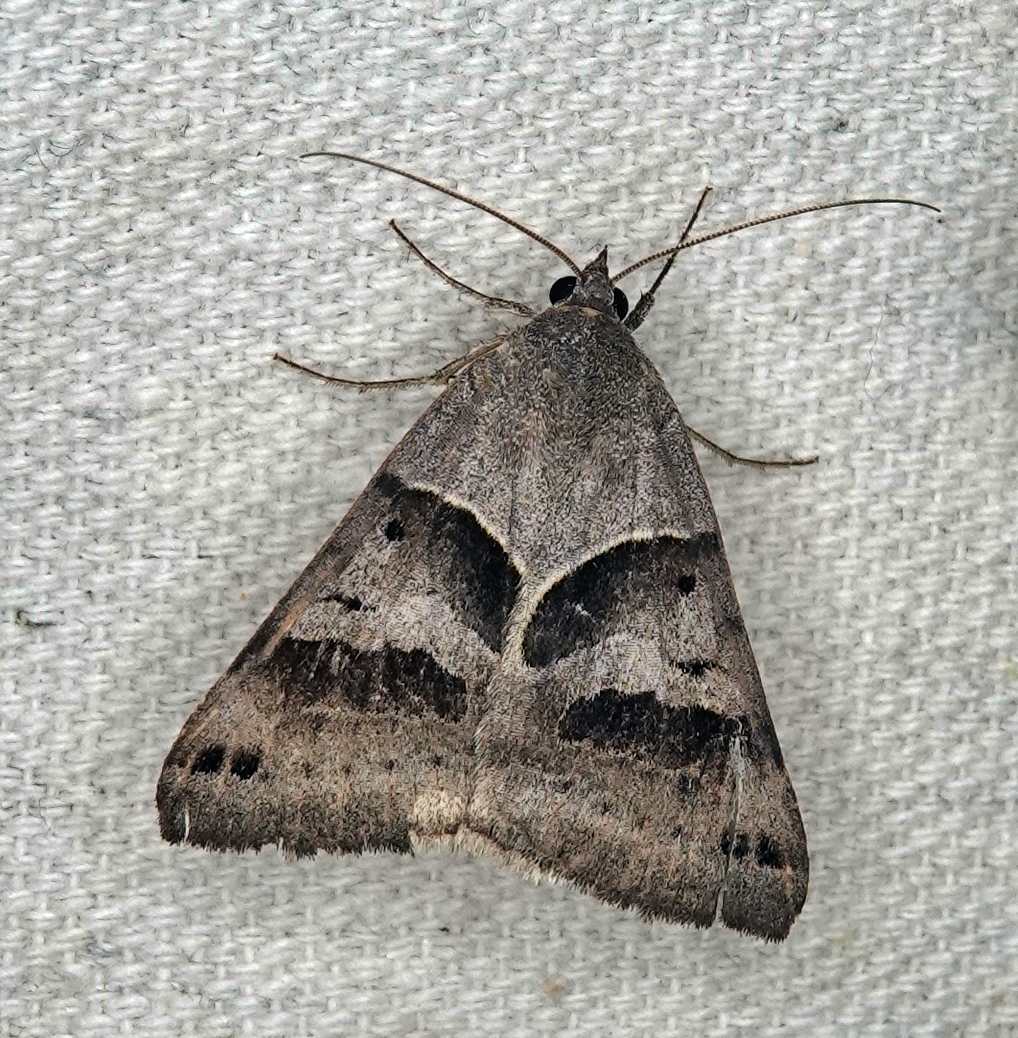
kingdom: Animalia
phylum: Arthropoda
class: Insecta
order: Lepidoptera
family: Erebidae
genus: Caenurgina
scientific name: Caenurgina erechtea
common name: Forage looper moth
